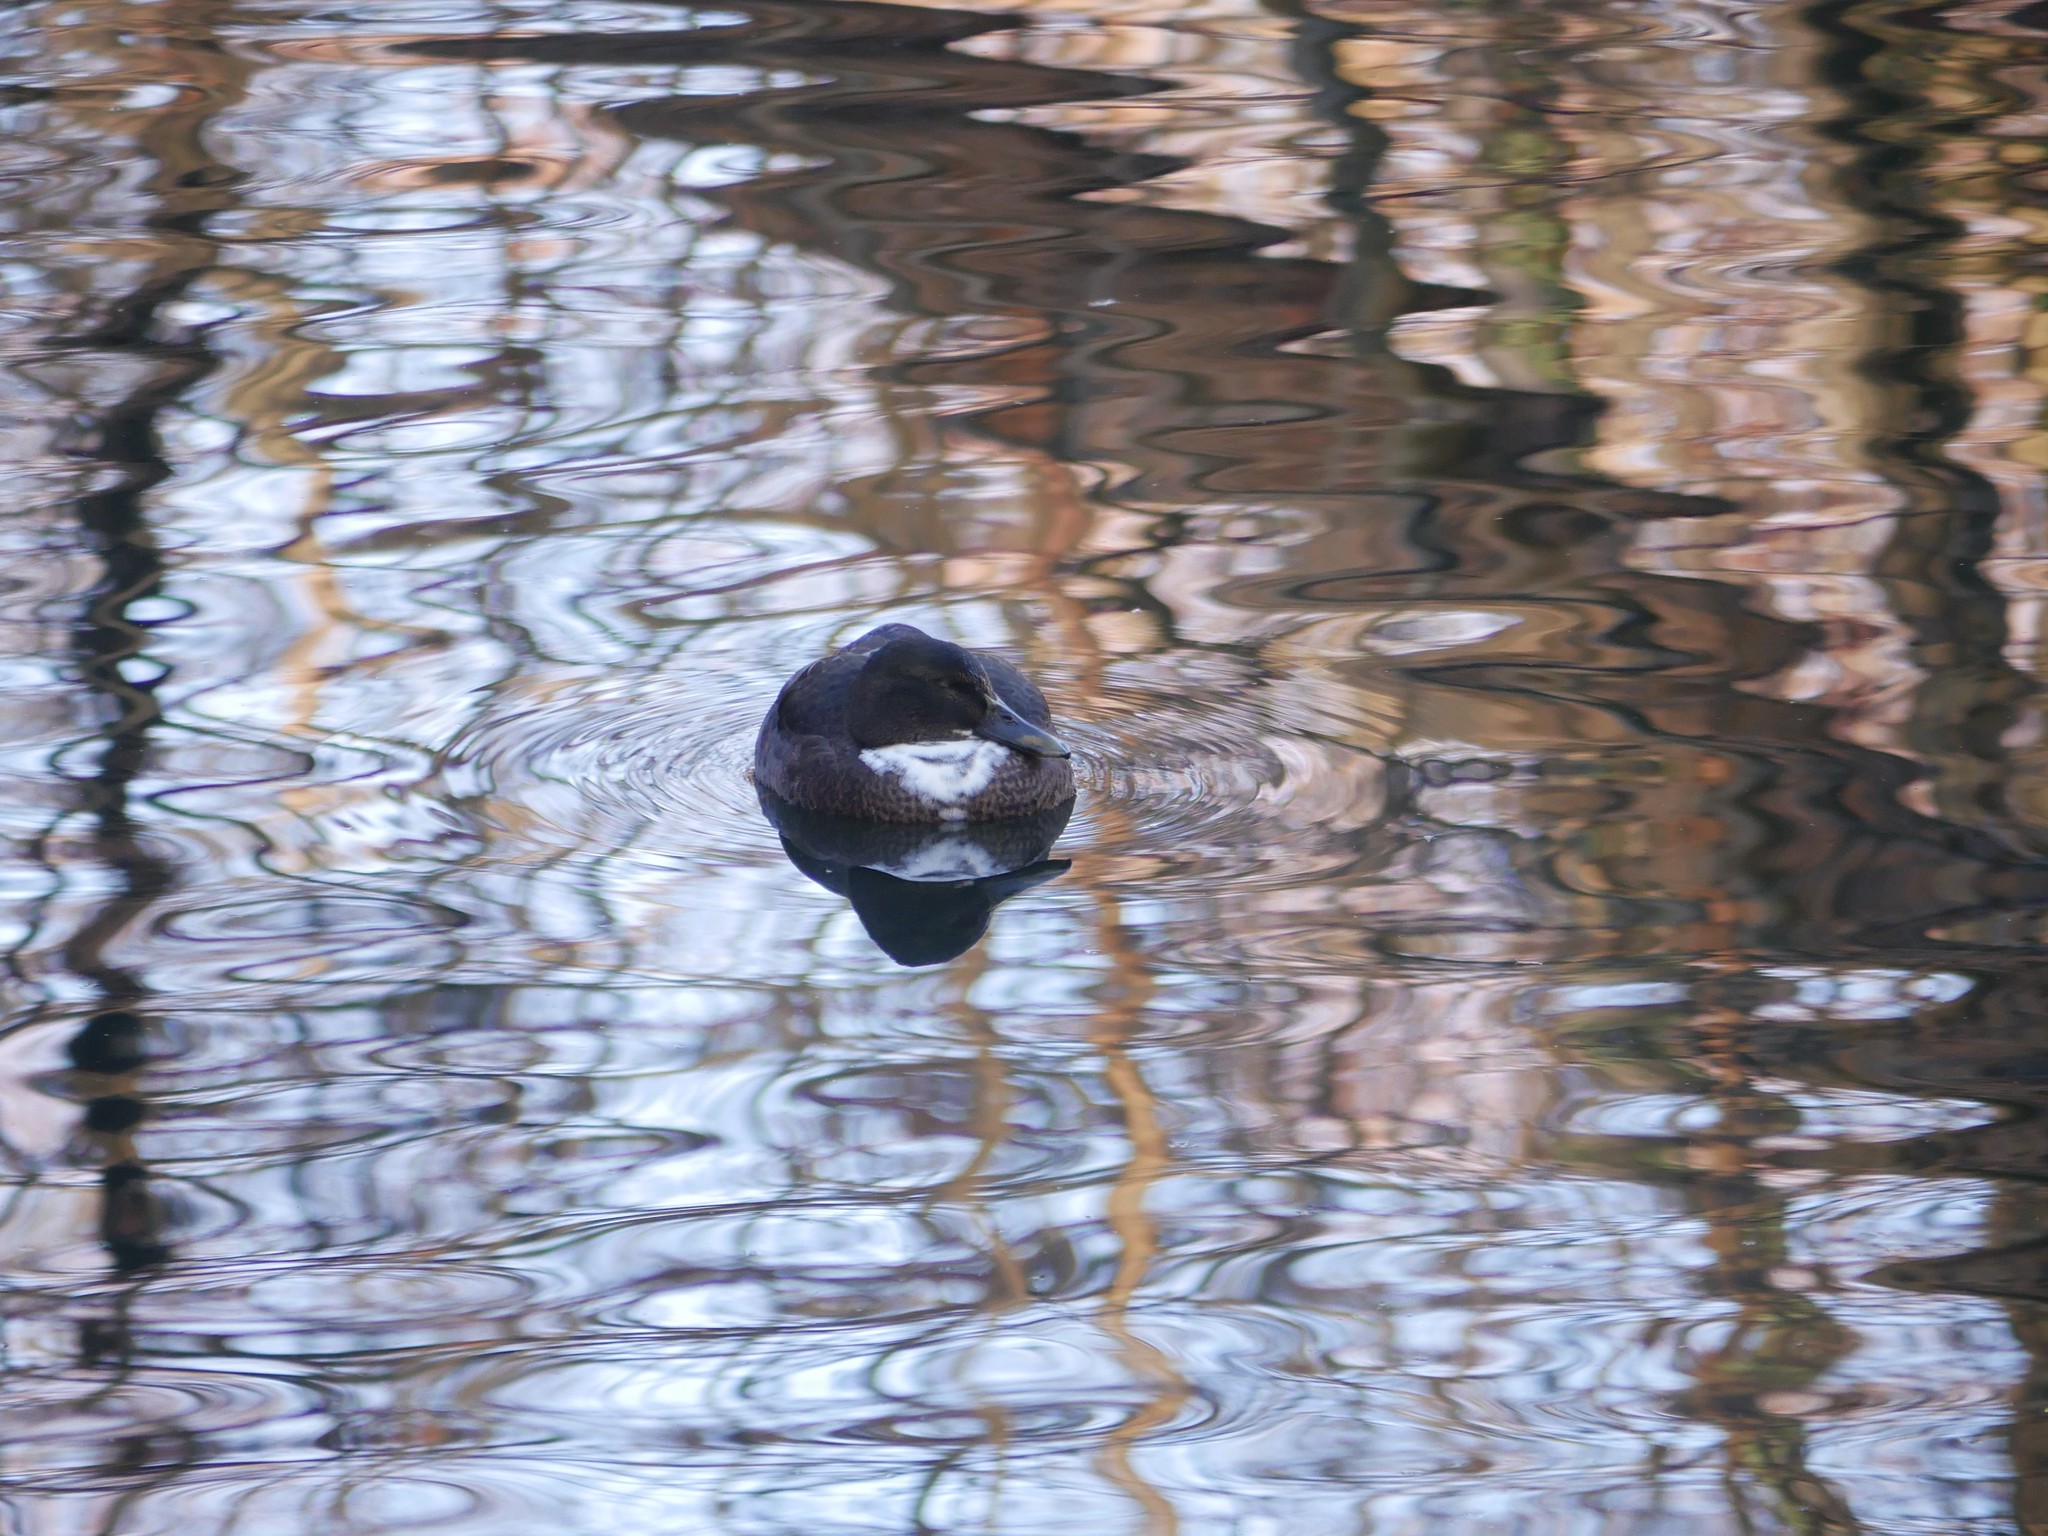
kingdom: Animalia
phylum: Chordata
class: Aves
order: Anseriformes
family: Anatidae
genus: Anas
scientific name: Anas platyrhynchos
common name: Mallard
